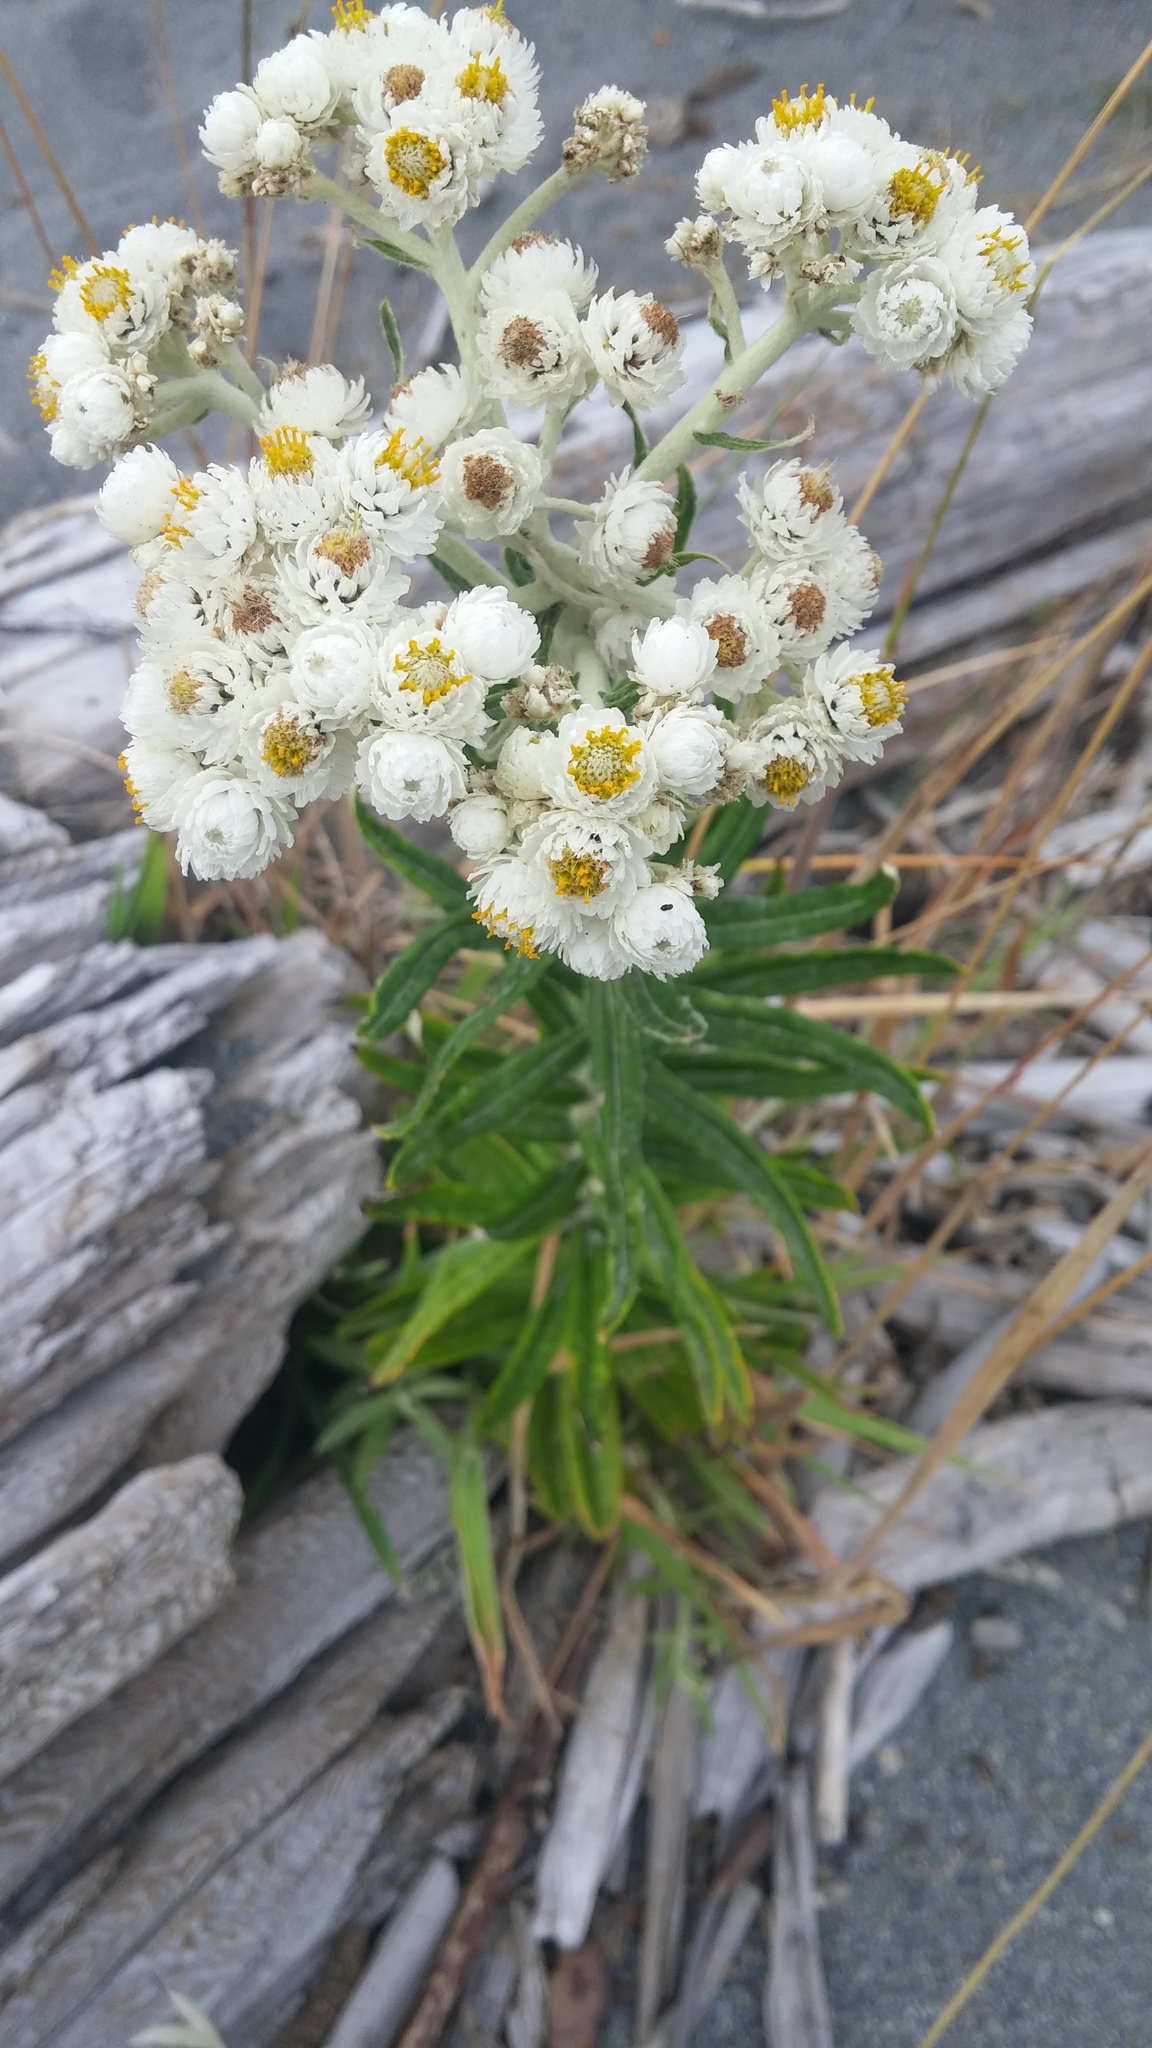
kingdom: Plantae
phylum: Tracheophyta
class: Magnoliopsida
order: Asterales
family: Asteraceae
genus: Anaphalis
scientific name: Anaphalis margaritacea
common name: Pearly everlasting
